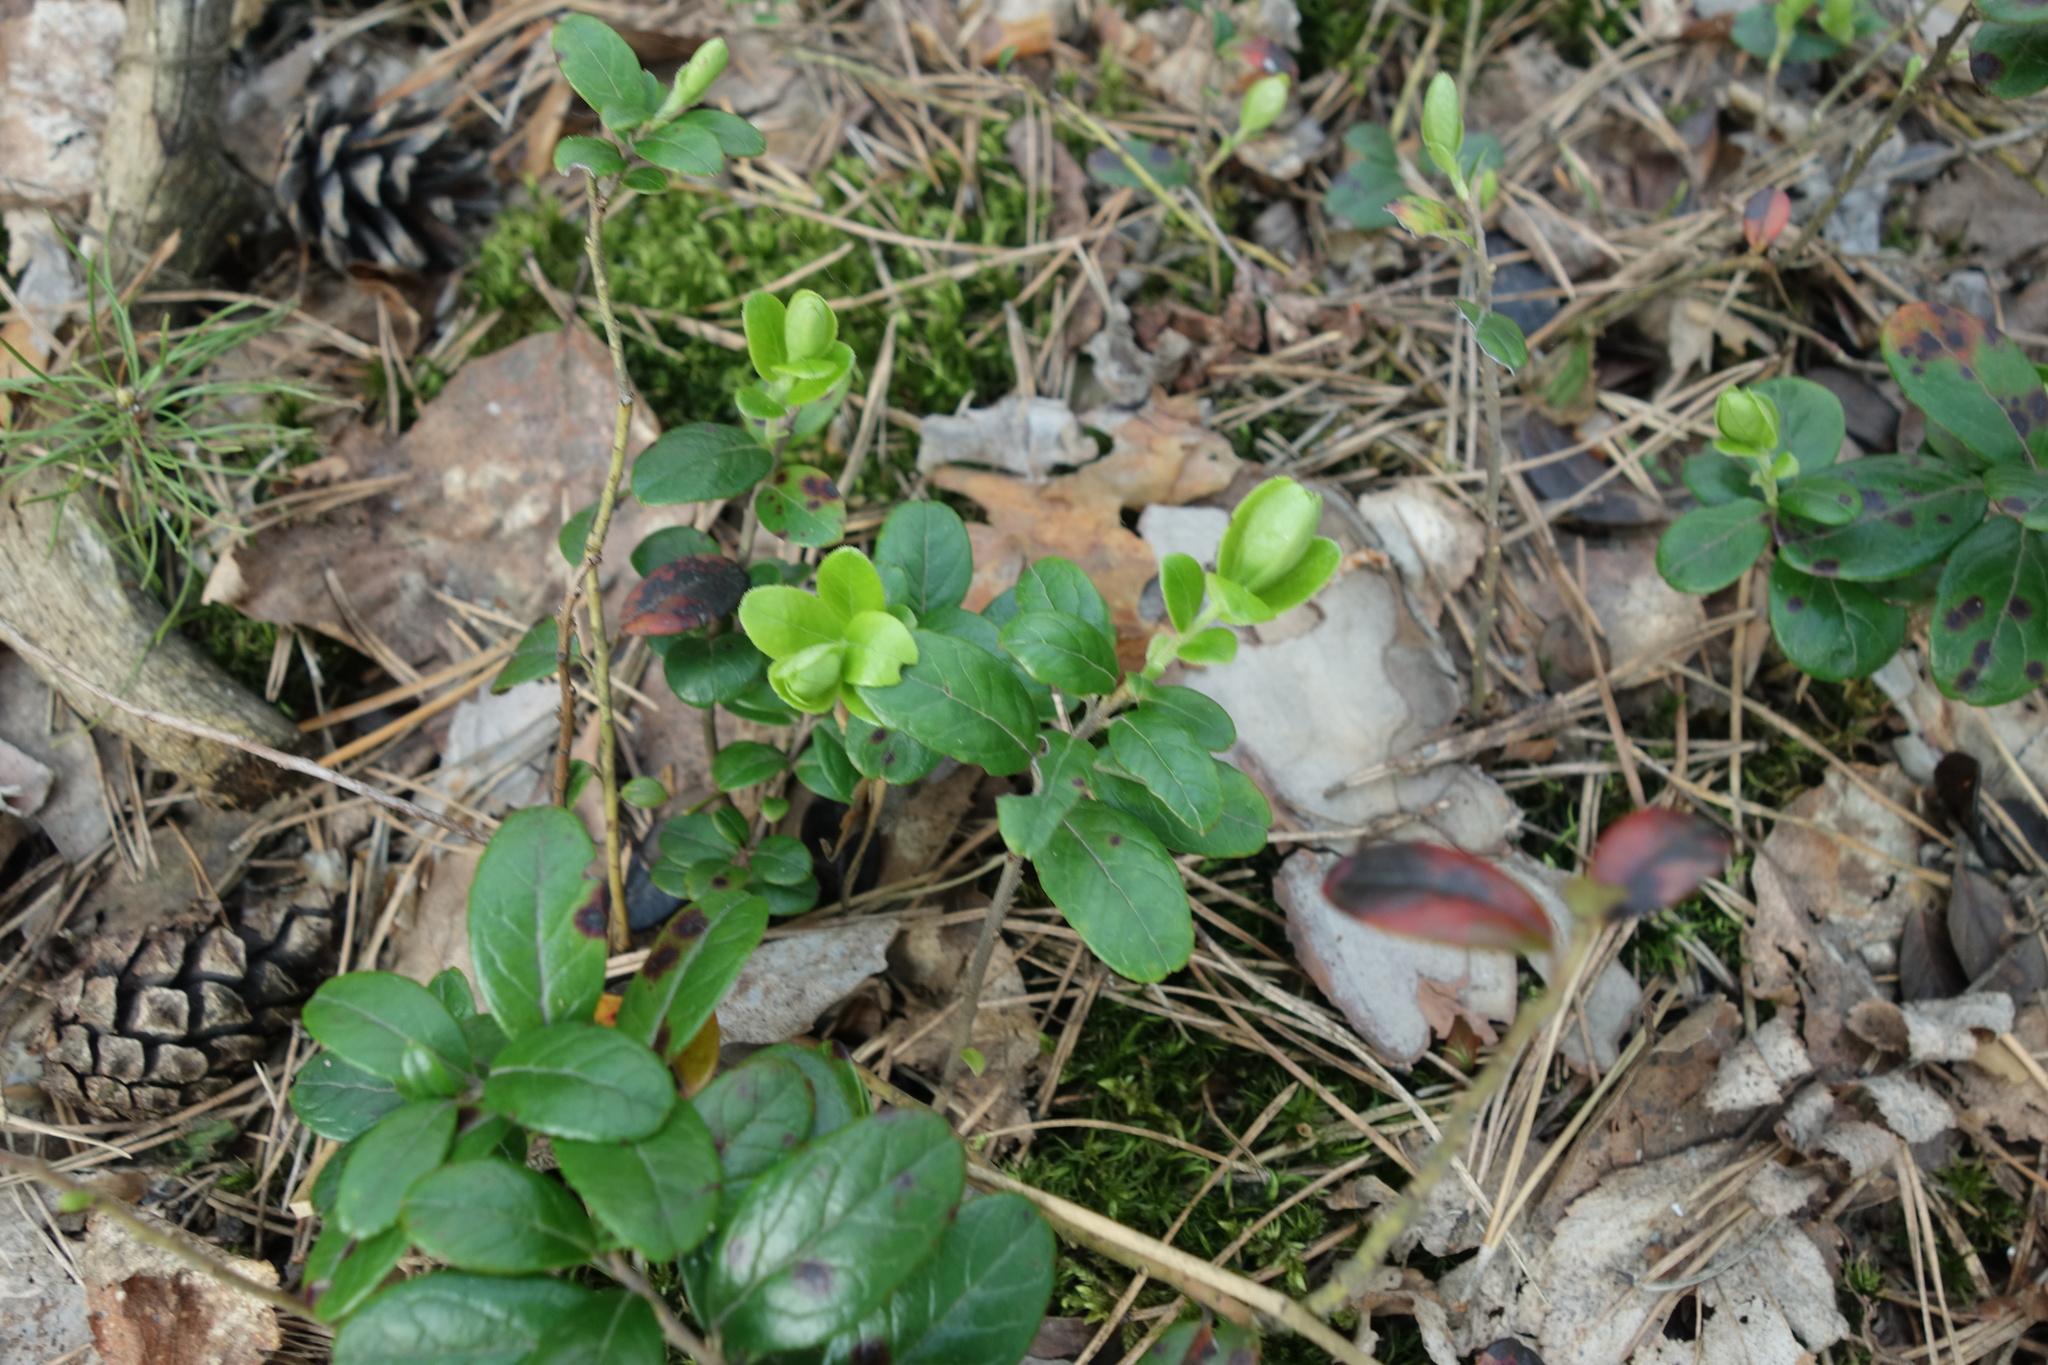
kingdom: Plantae
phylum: Tracheophyta
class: Magnoliopsida
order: Ericales
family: Ericaceae
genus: Vaccinium
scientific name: Vaccinium vitis-idaea
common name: Cowberry
